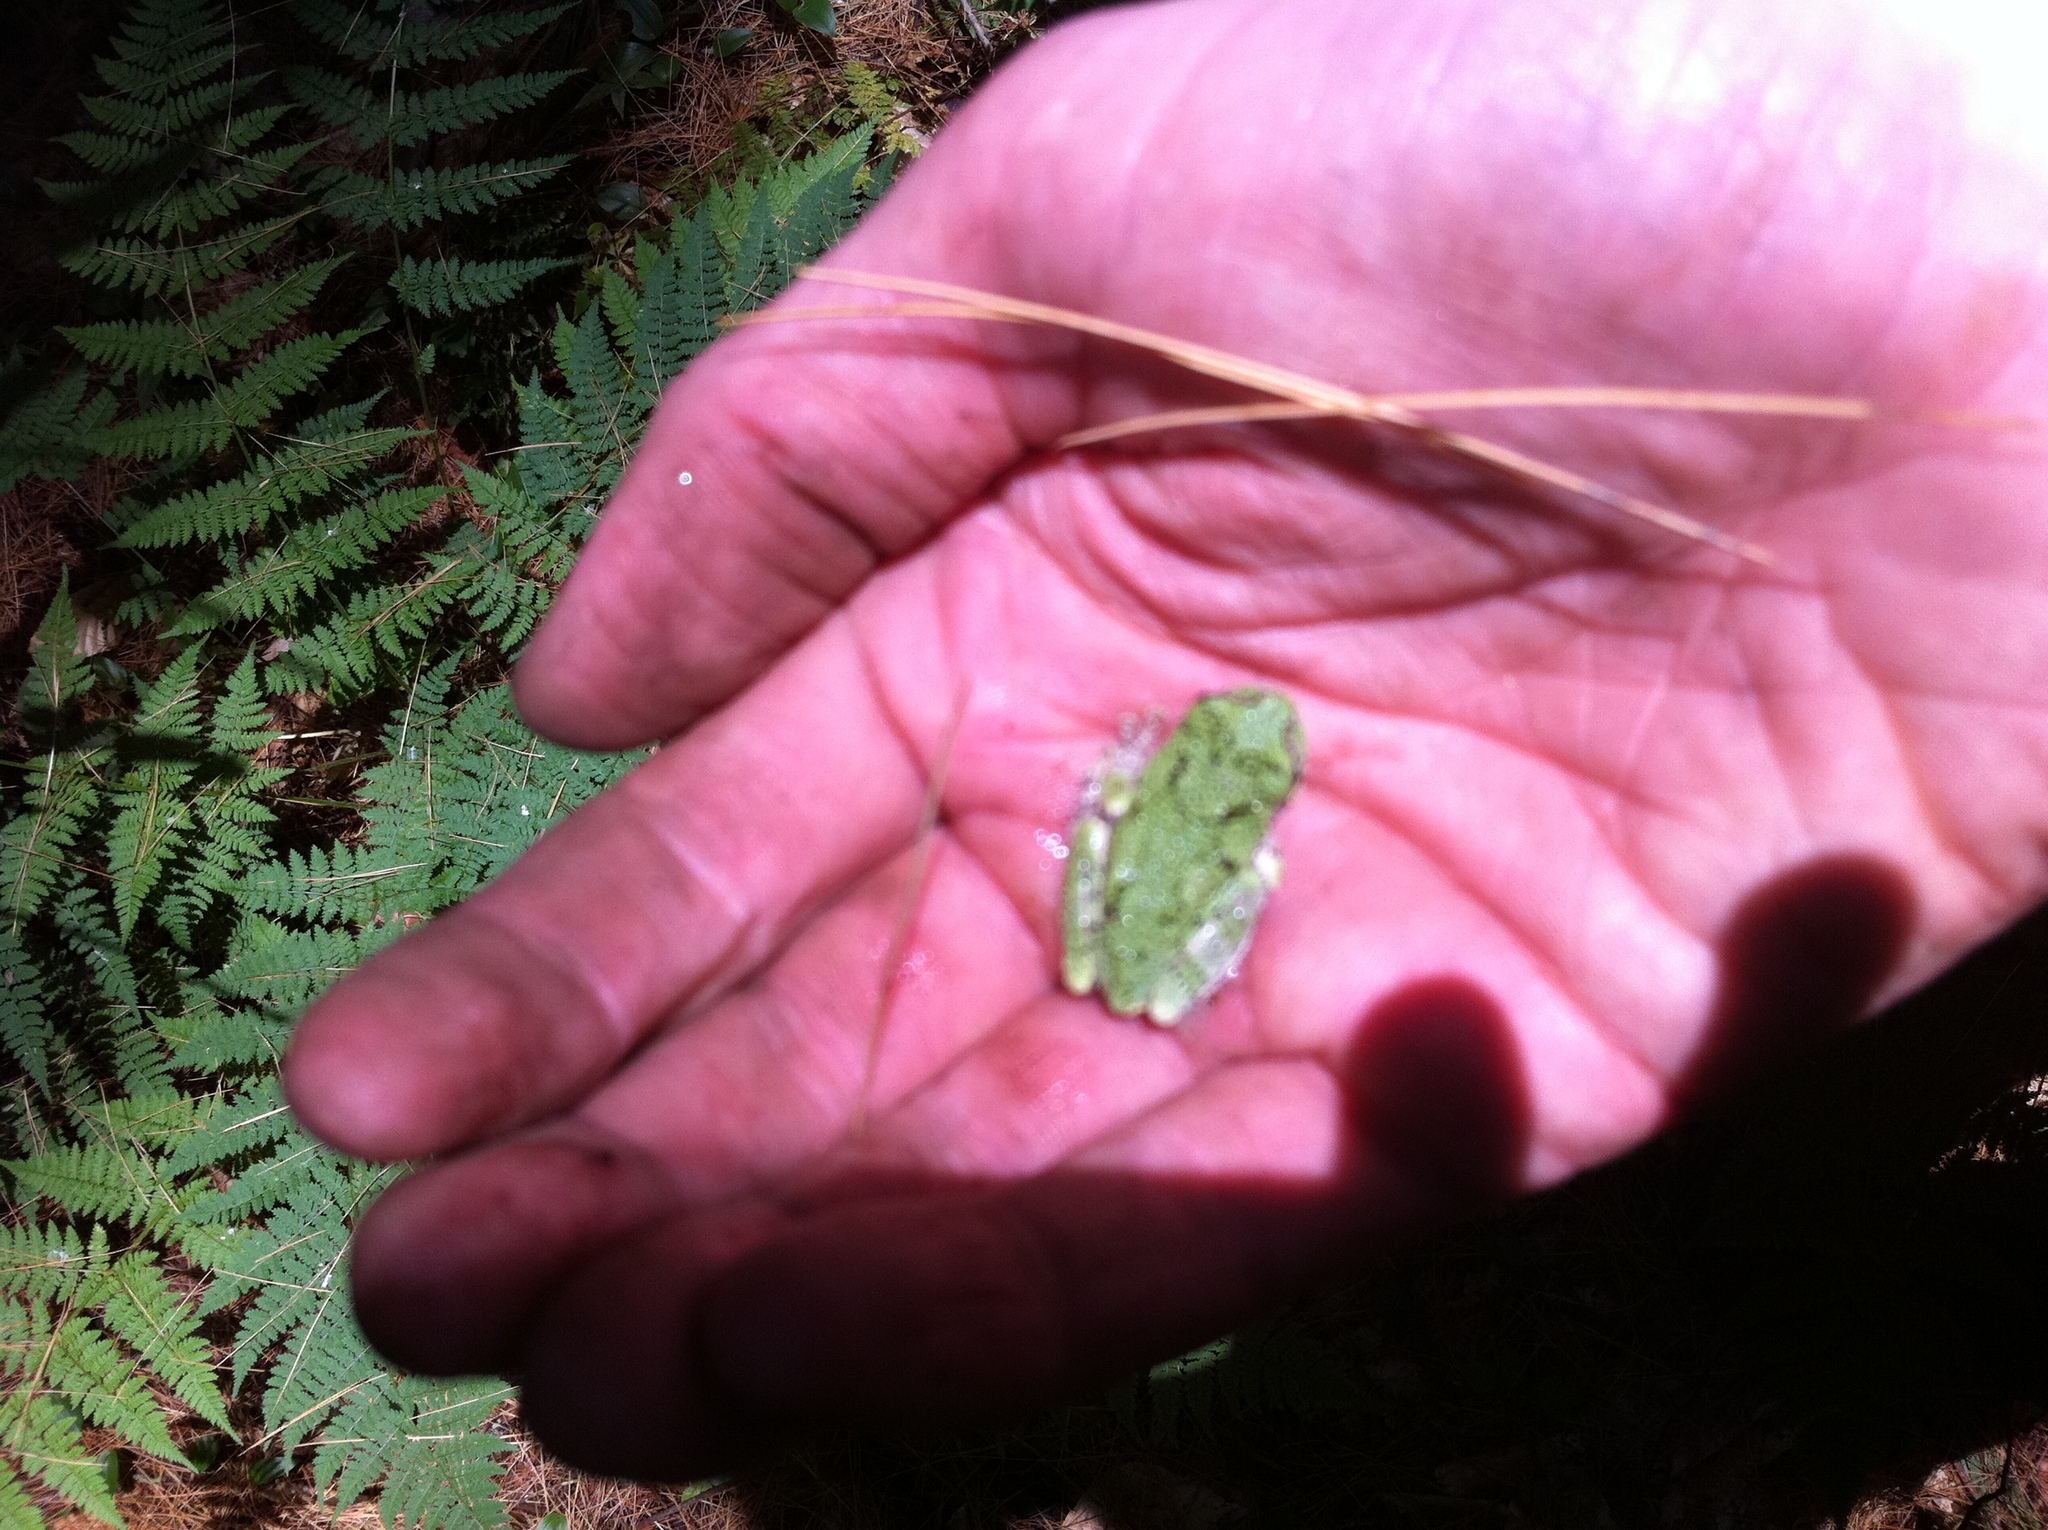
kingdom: Animalia
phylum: Chordata
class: Amphibia
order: Anura
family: Hylidae
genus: Dryophytes
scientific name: Dryophytes versicolor
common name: Gray treefrog
